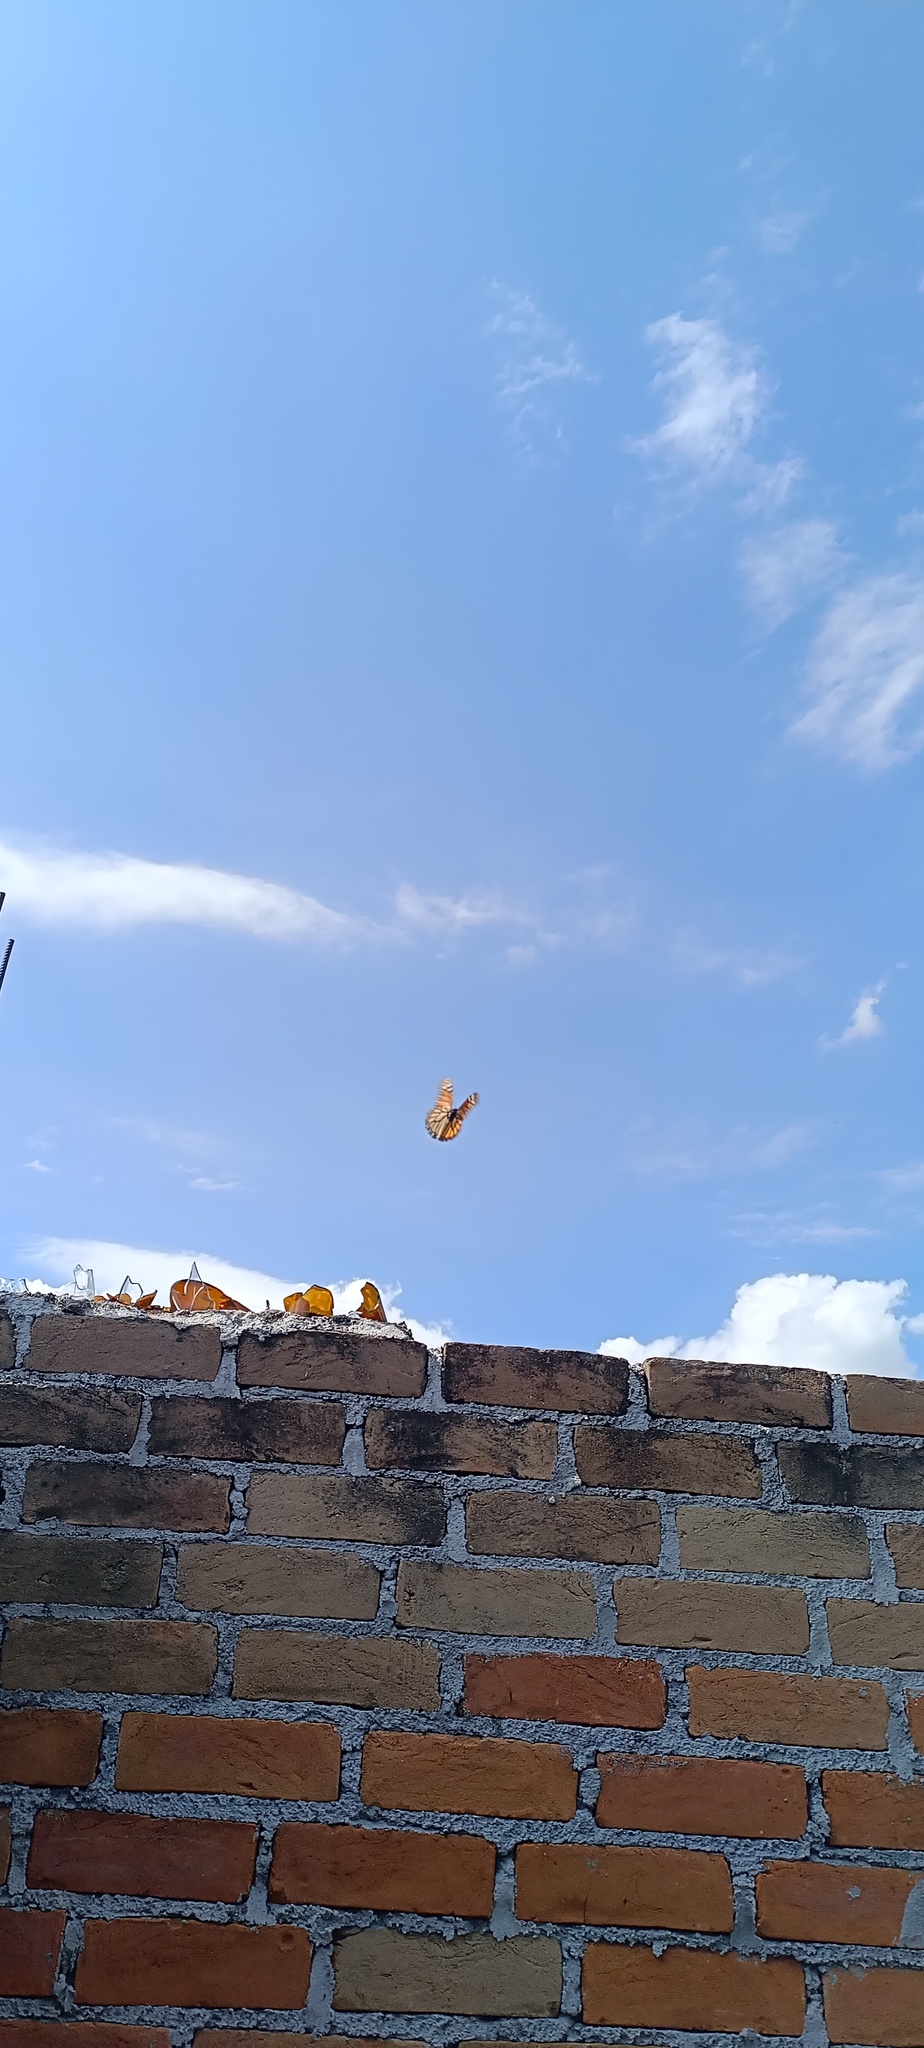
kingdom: Animalia
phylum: Arthropoda
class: Insecta
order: Lepidoptera
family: Nymphalidae
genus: Danaus
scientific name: Danaus plexippus
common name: Monarch
